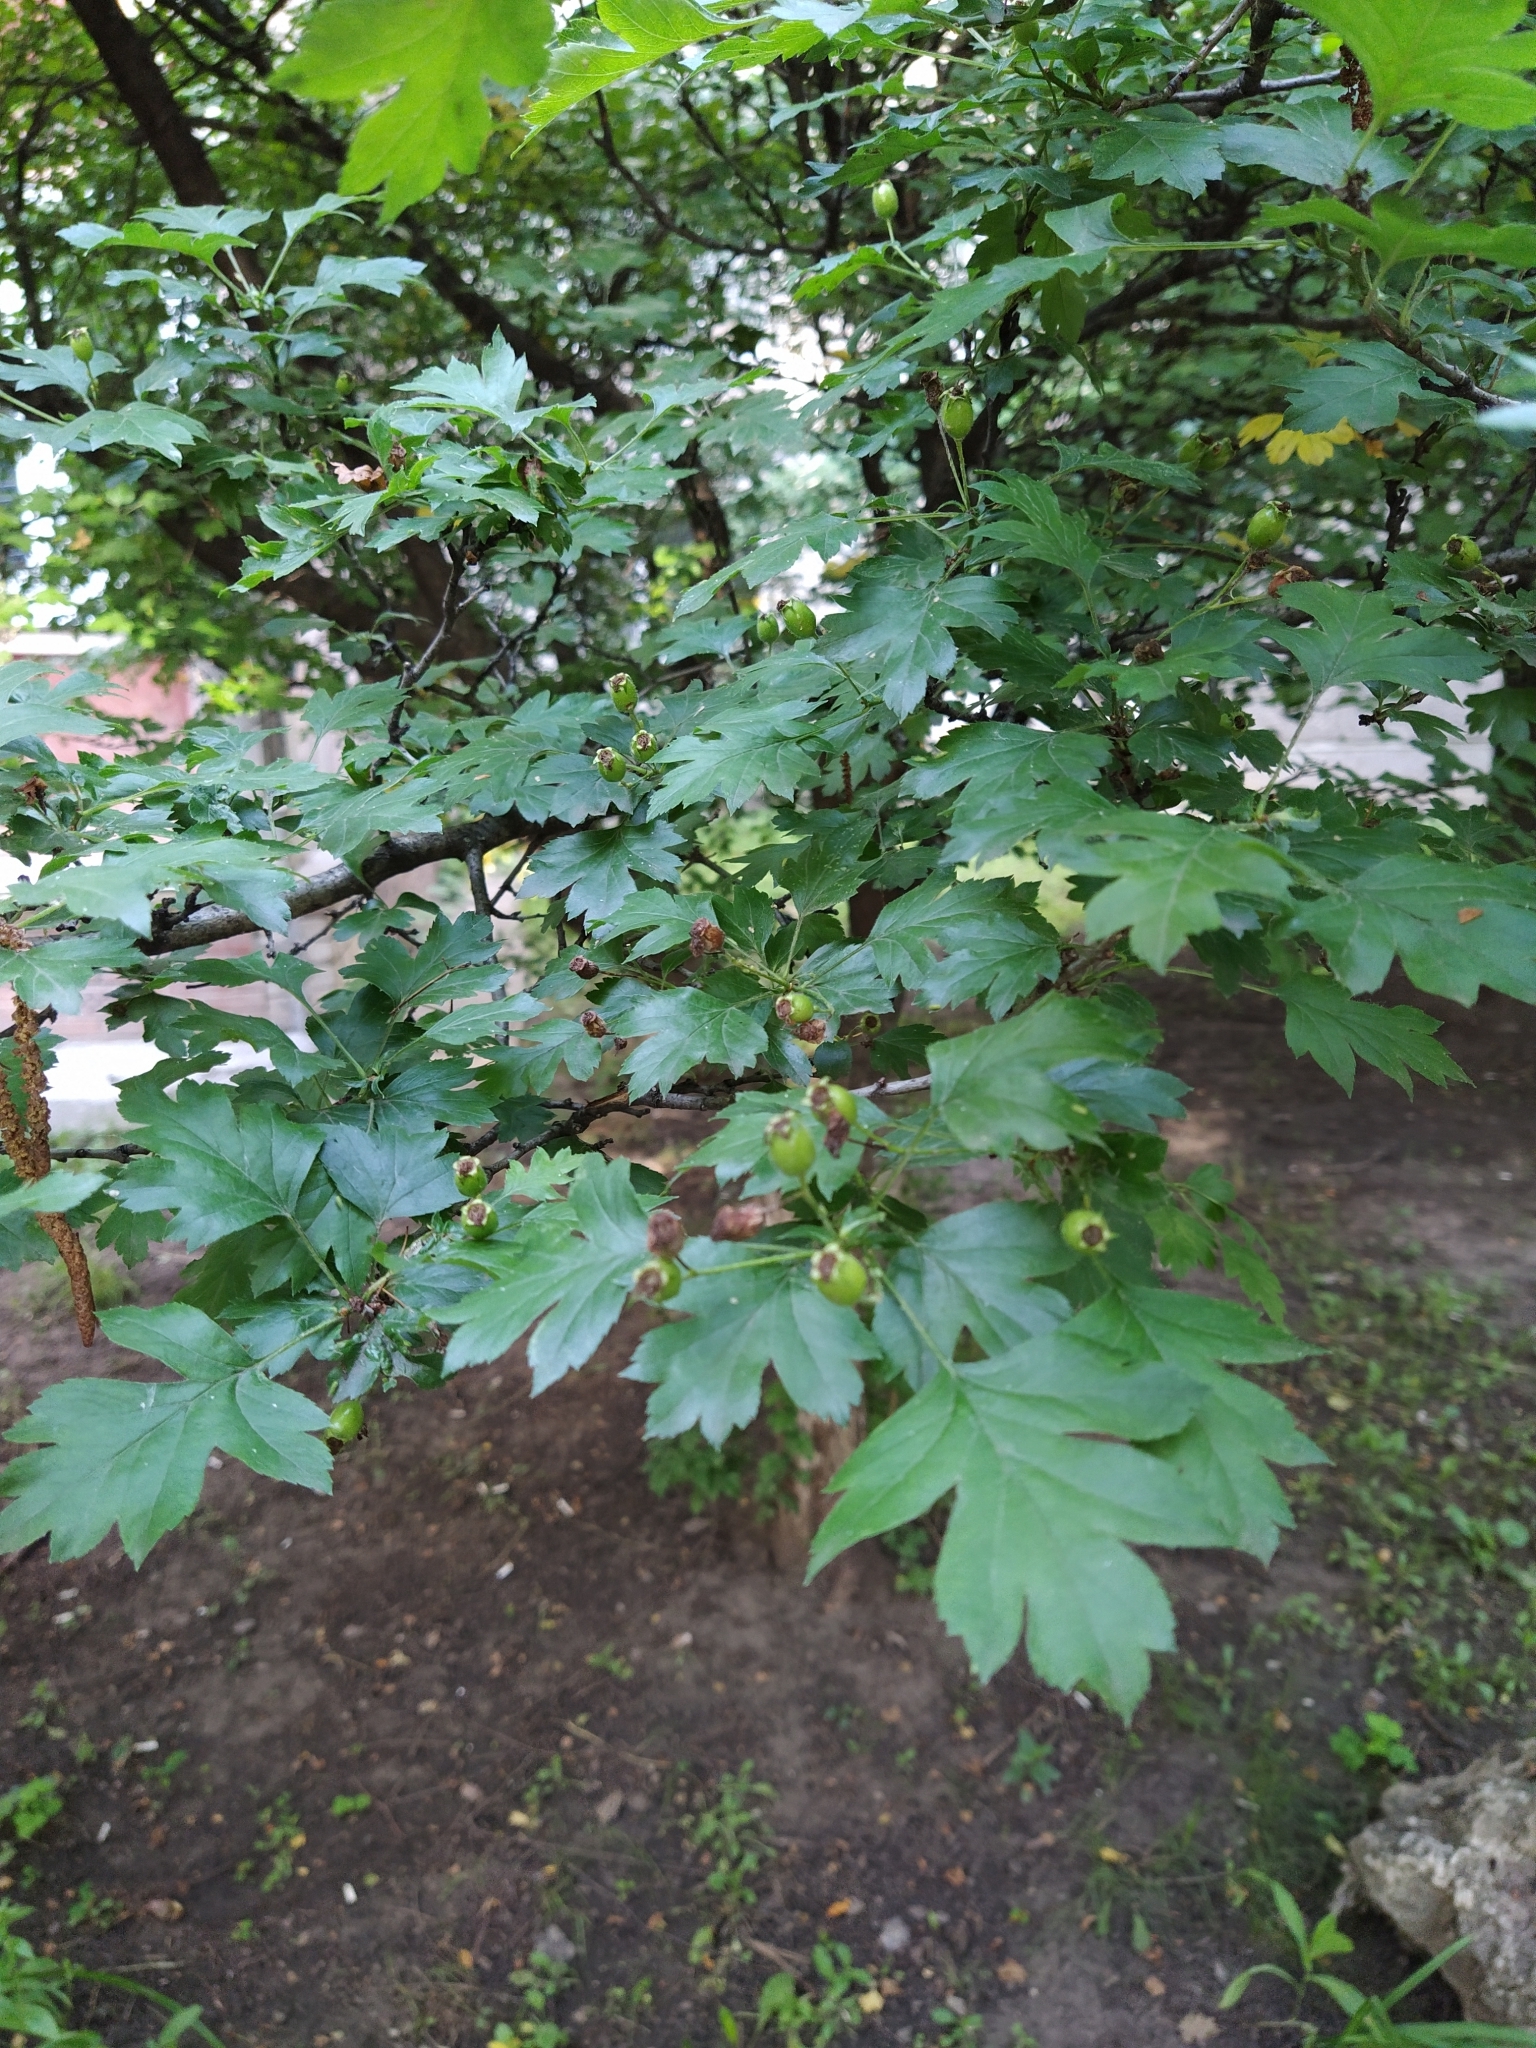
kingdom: Plantae
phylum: Tracheophyta
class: Magnoliopsida
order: Rosales
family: Rosaceae
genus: Crataegus
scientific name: Crataegus monogyna
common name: Hawthorn
